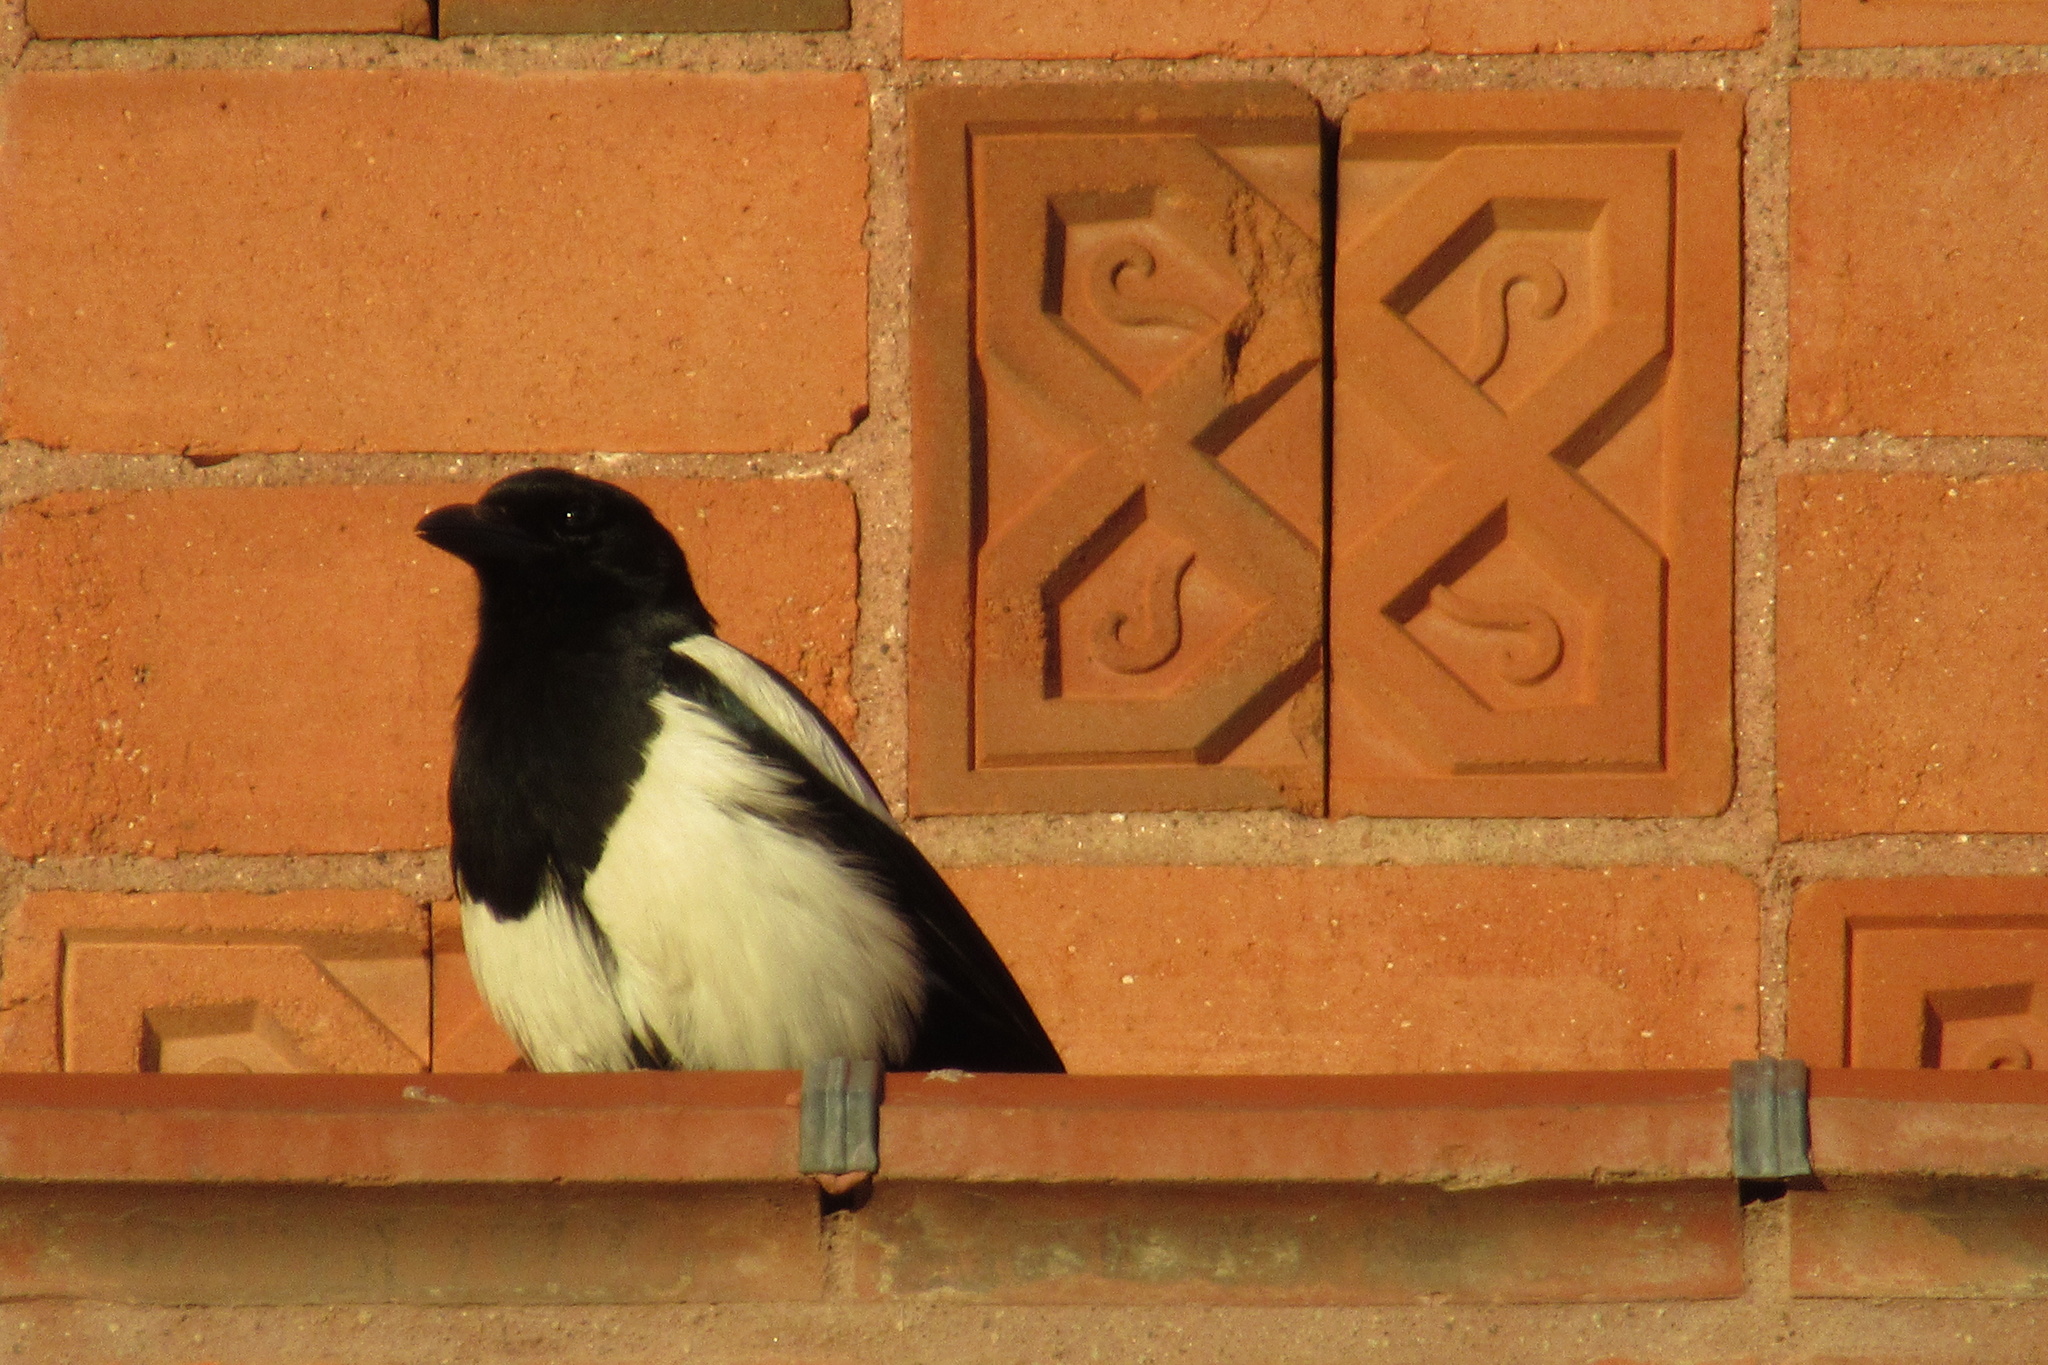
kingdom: Animalia
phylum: Chordata
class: Aves
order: Passeriformes
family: Corvidae
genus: Pica
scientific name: Pica hudsonia
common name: Black-billed magpie
